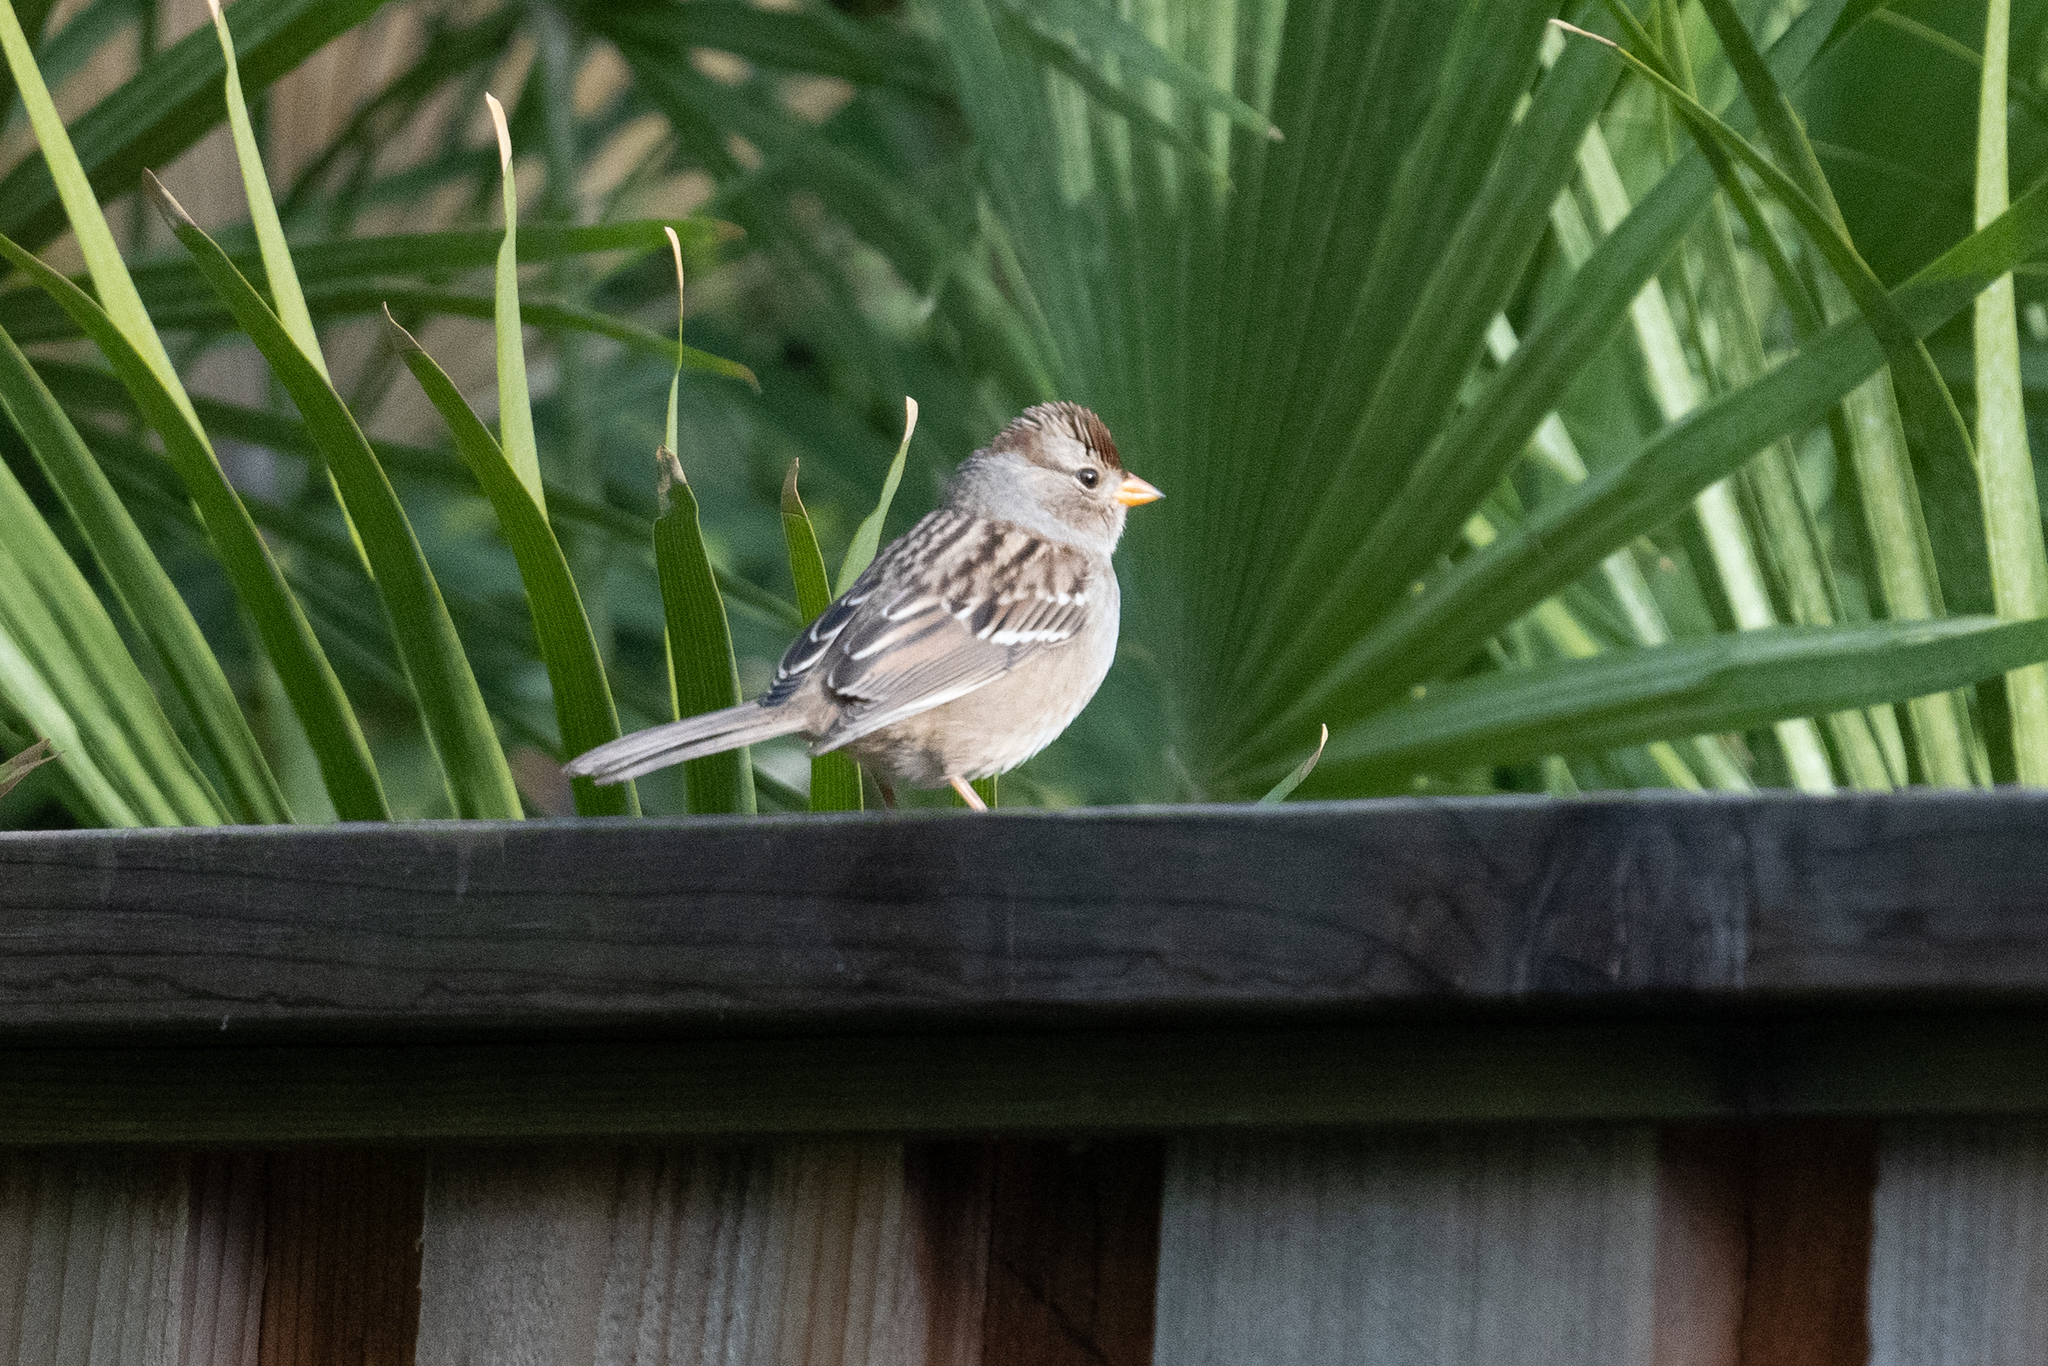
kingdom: Animalia
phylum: Chordata
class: Aves
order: Passeriformes
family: Passerellidae
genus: Zonotrichia
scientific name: Zonotrichia leucophrys
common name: White-crowned sparrow
